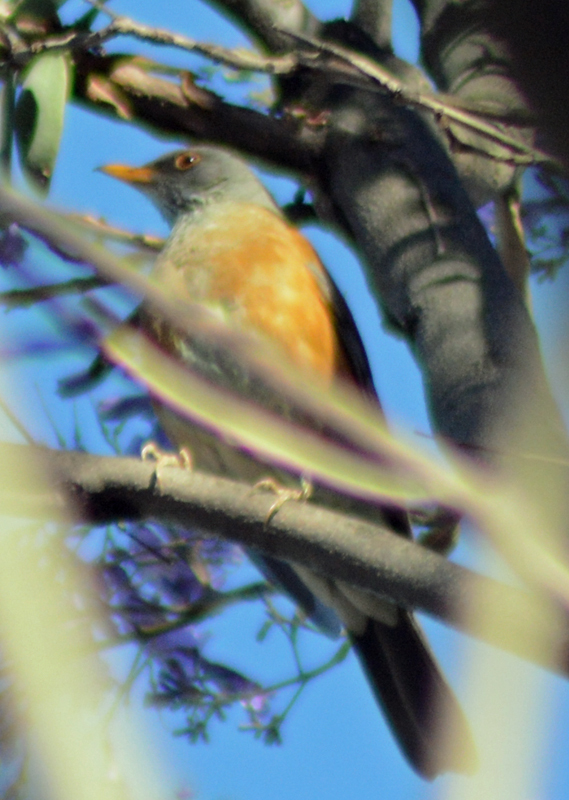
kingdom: Animalia
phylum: Chordata
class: Aves
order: Passeriformes
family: Turdidae
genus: Turdus
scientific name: Turdus rufopalliatus
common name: Rufous-backed robin
